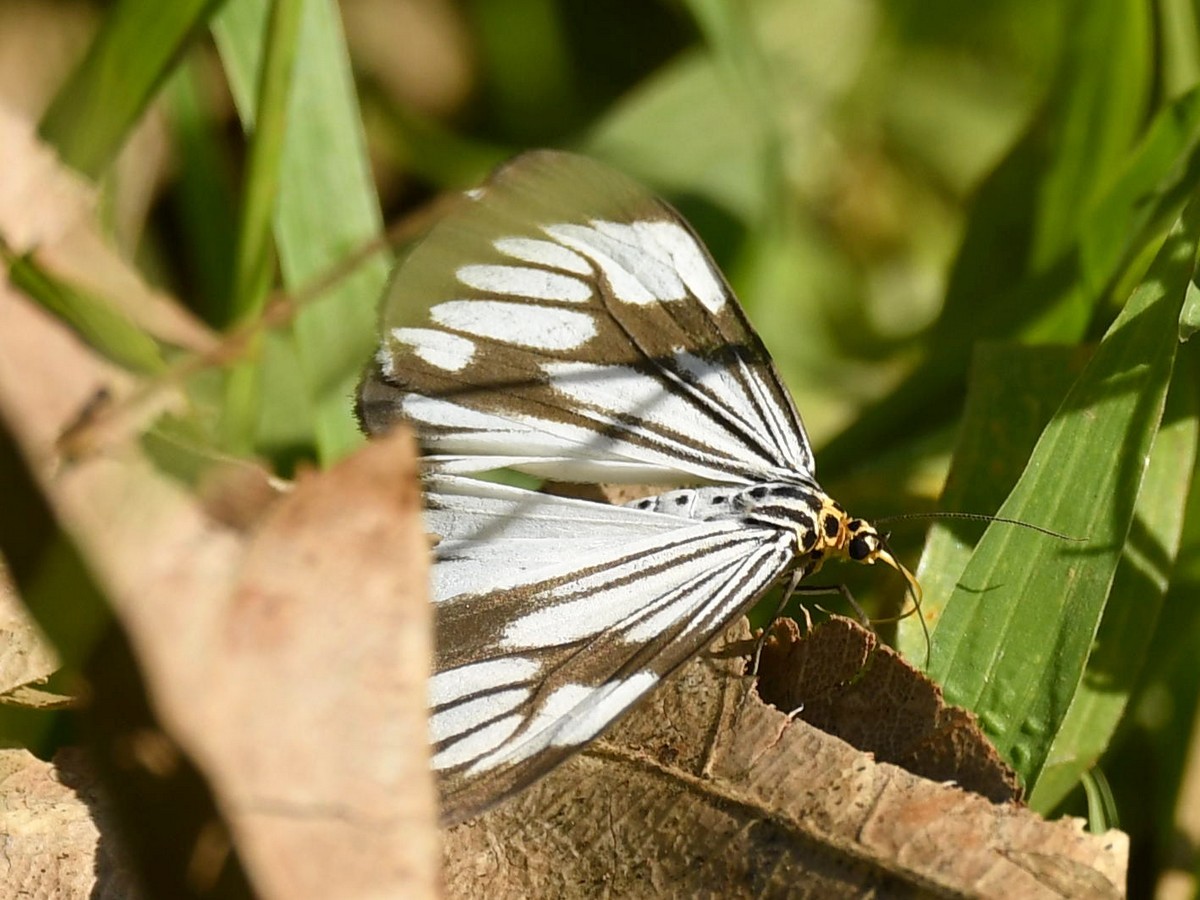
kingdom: Animalia
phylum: Arthropoda
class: Insecta
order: Lepidoptera
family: Erebidae
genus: Nyctemera
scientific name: Nyctemera coleta
